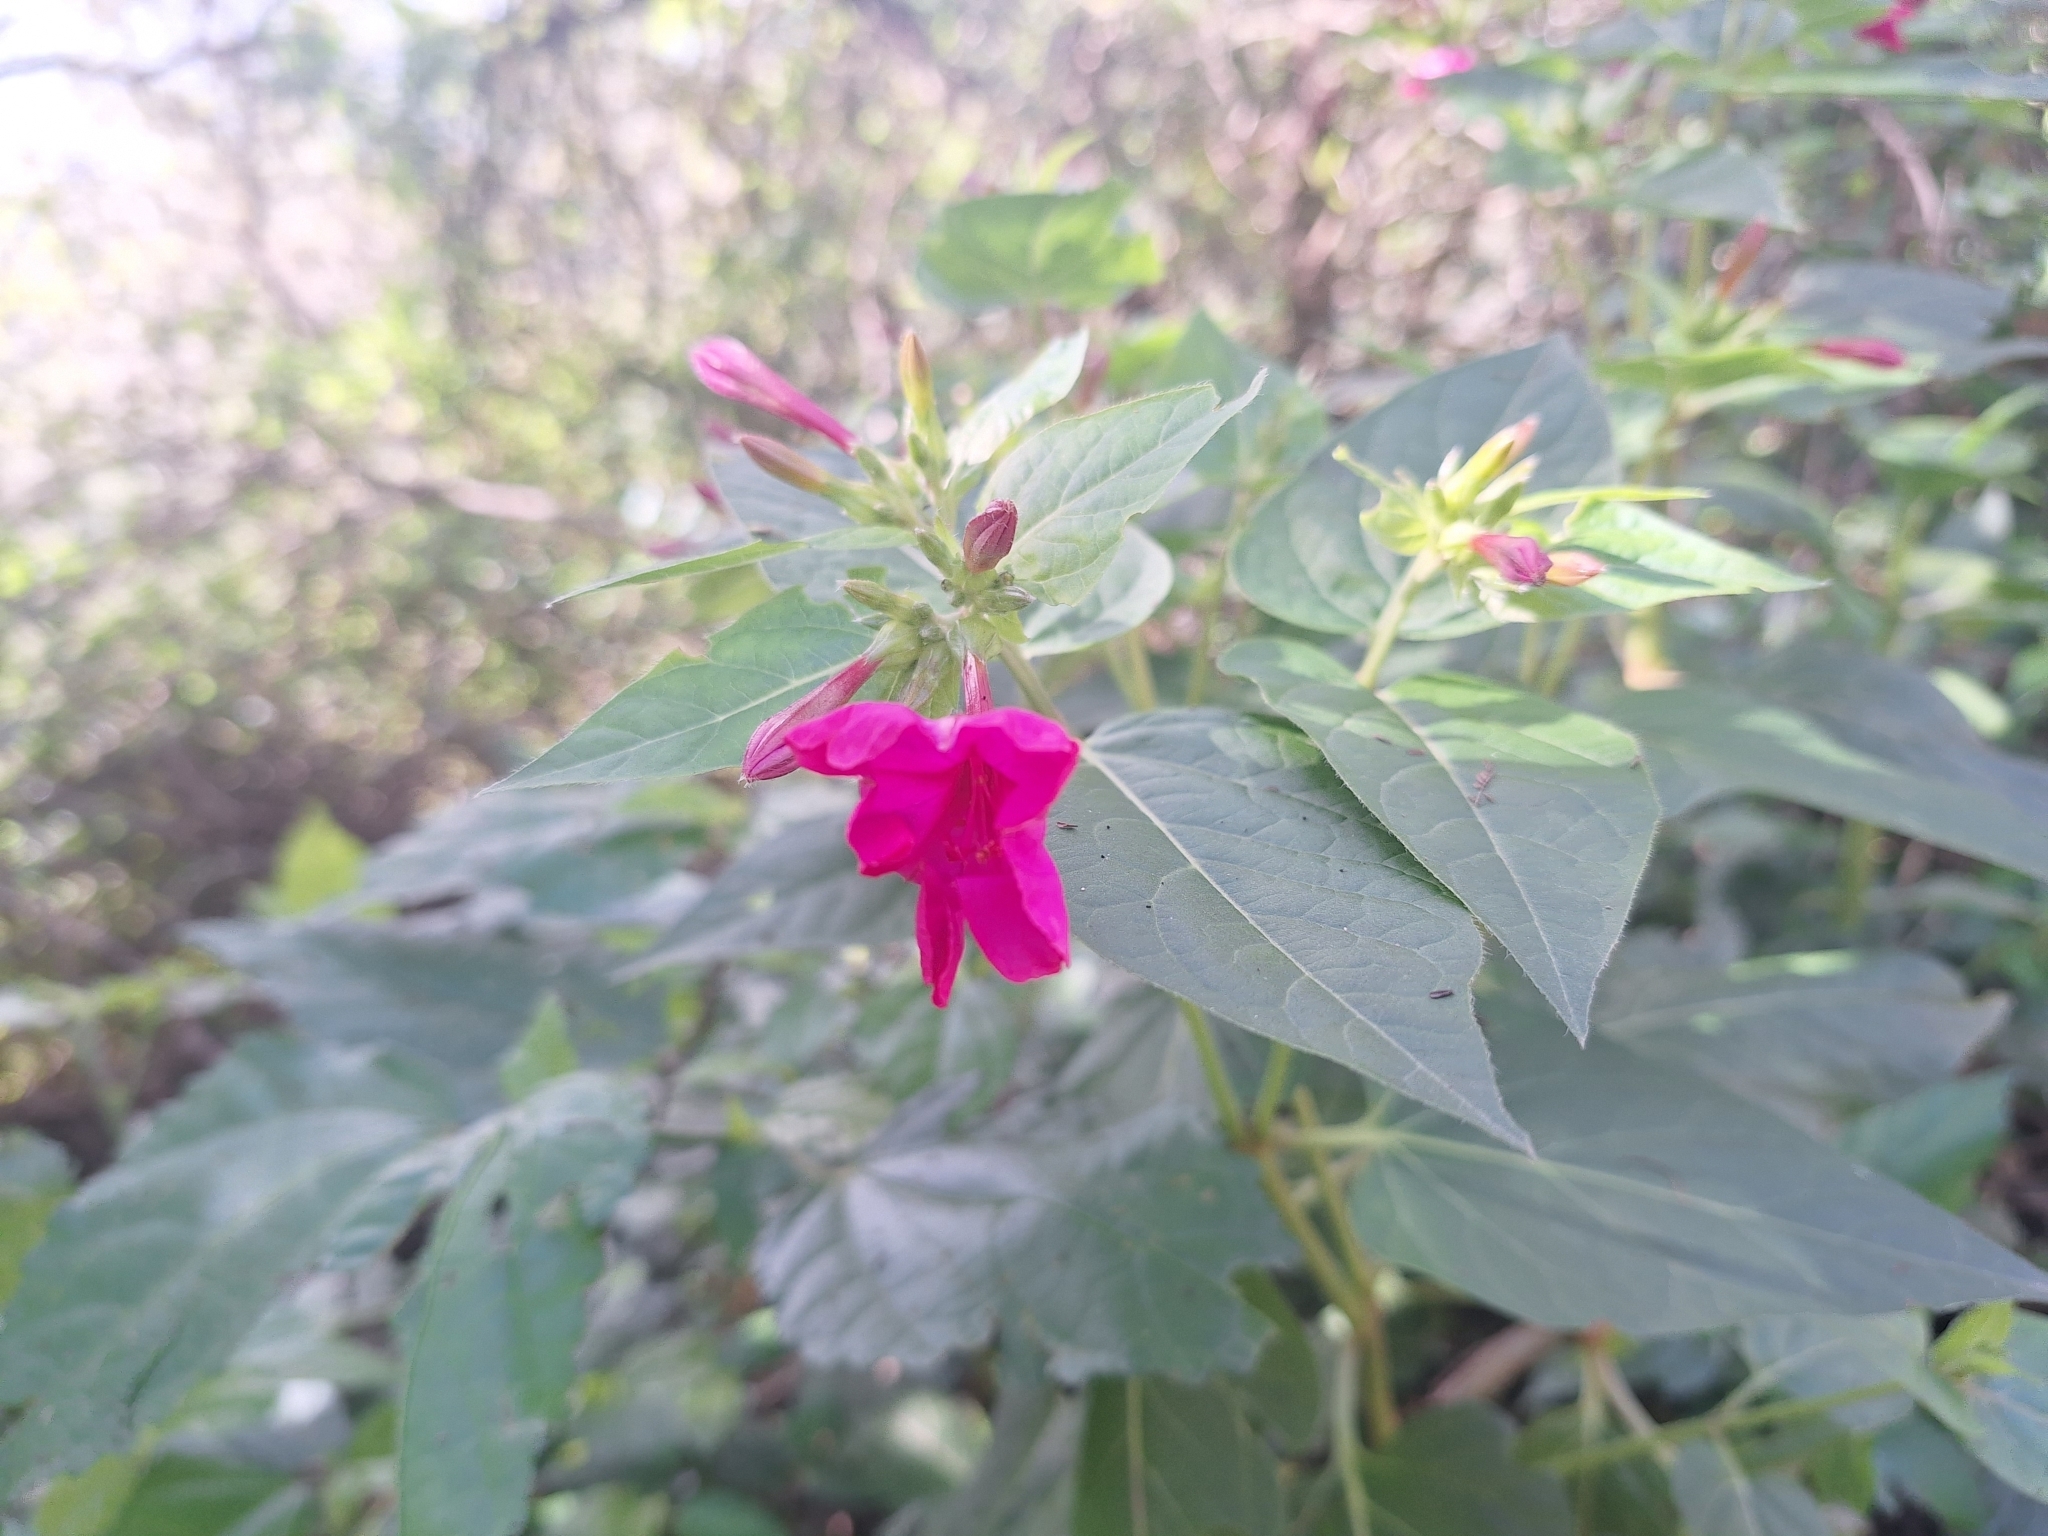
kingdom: Plantae
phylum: Tracheophyta
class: Magnoliopsida
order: Caryophyllales
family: Nyctaginaceae
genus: Mirabilis
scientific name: Mirabilis jalapa
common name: Marvel-of-peru
